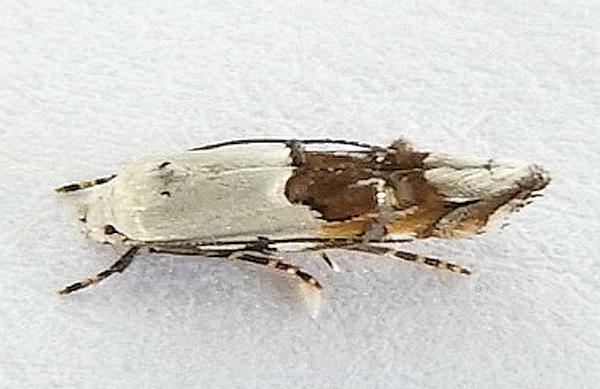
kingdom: Animalia
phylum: Arthropoda
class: Insecta
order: Lepidoptera
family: Momphidae
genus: Mompha
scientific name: Mompha bottimeri
